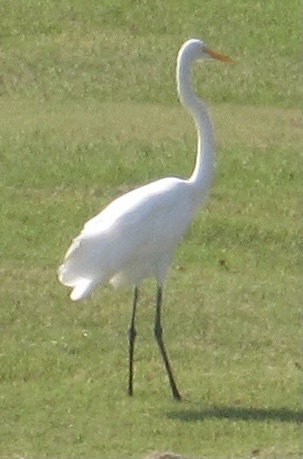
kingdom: Animalia
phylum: Chordata
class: Aves
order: Pelecaniformes
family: Ardeidae
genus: Ardea
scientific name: Ardea alba
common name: Great egret
